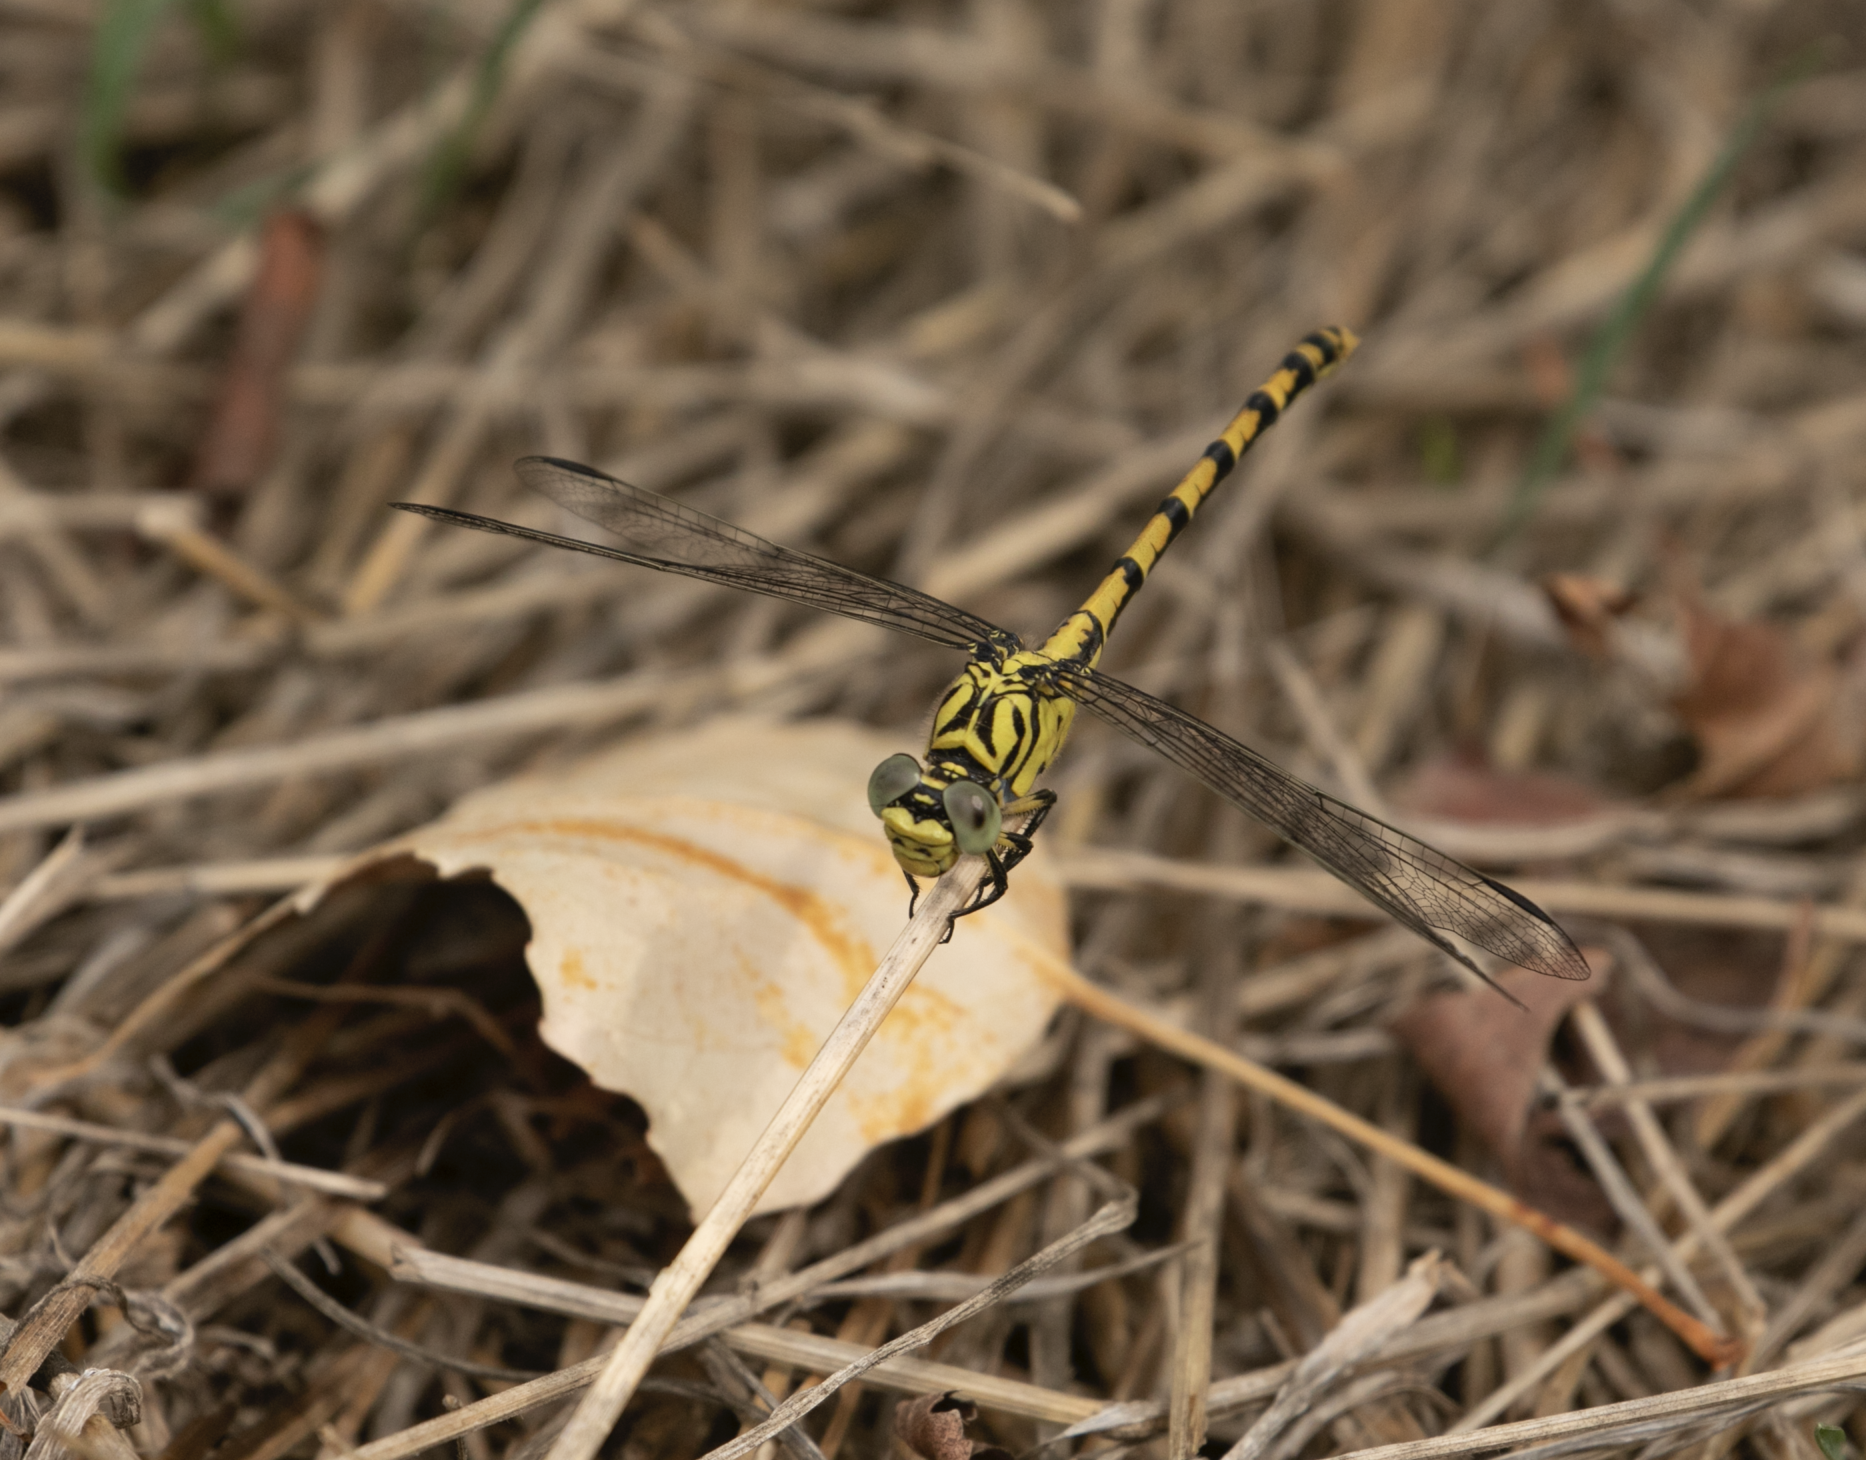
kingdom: Animalia
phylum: Arthropoda
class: Insecta
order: Odonata
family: Gomphidae
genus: Onychogomphus
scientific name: Onychogomphus forcipatus
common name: Small pincertail
